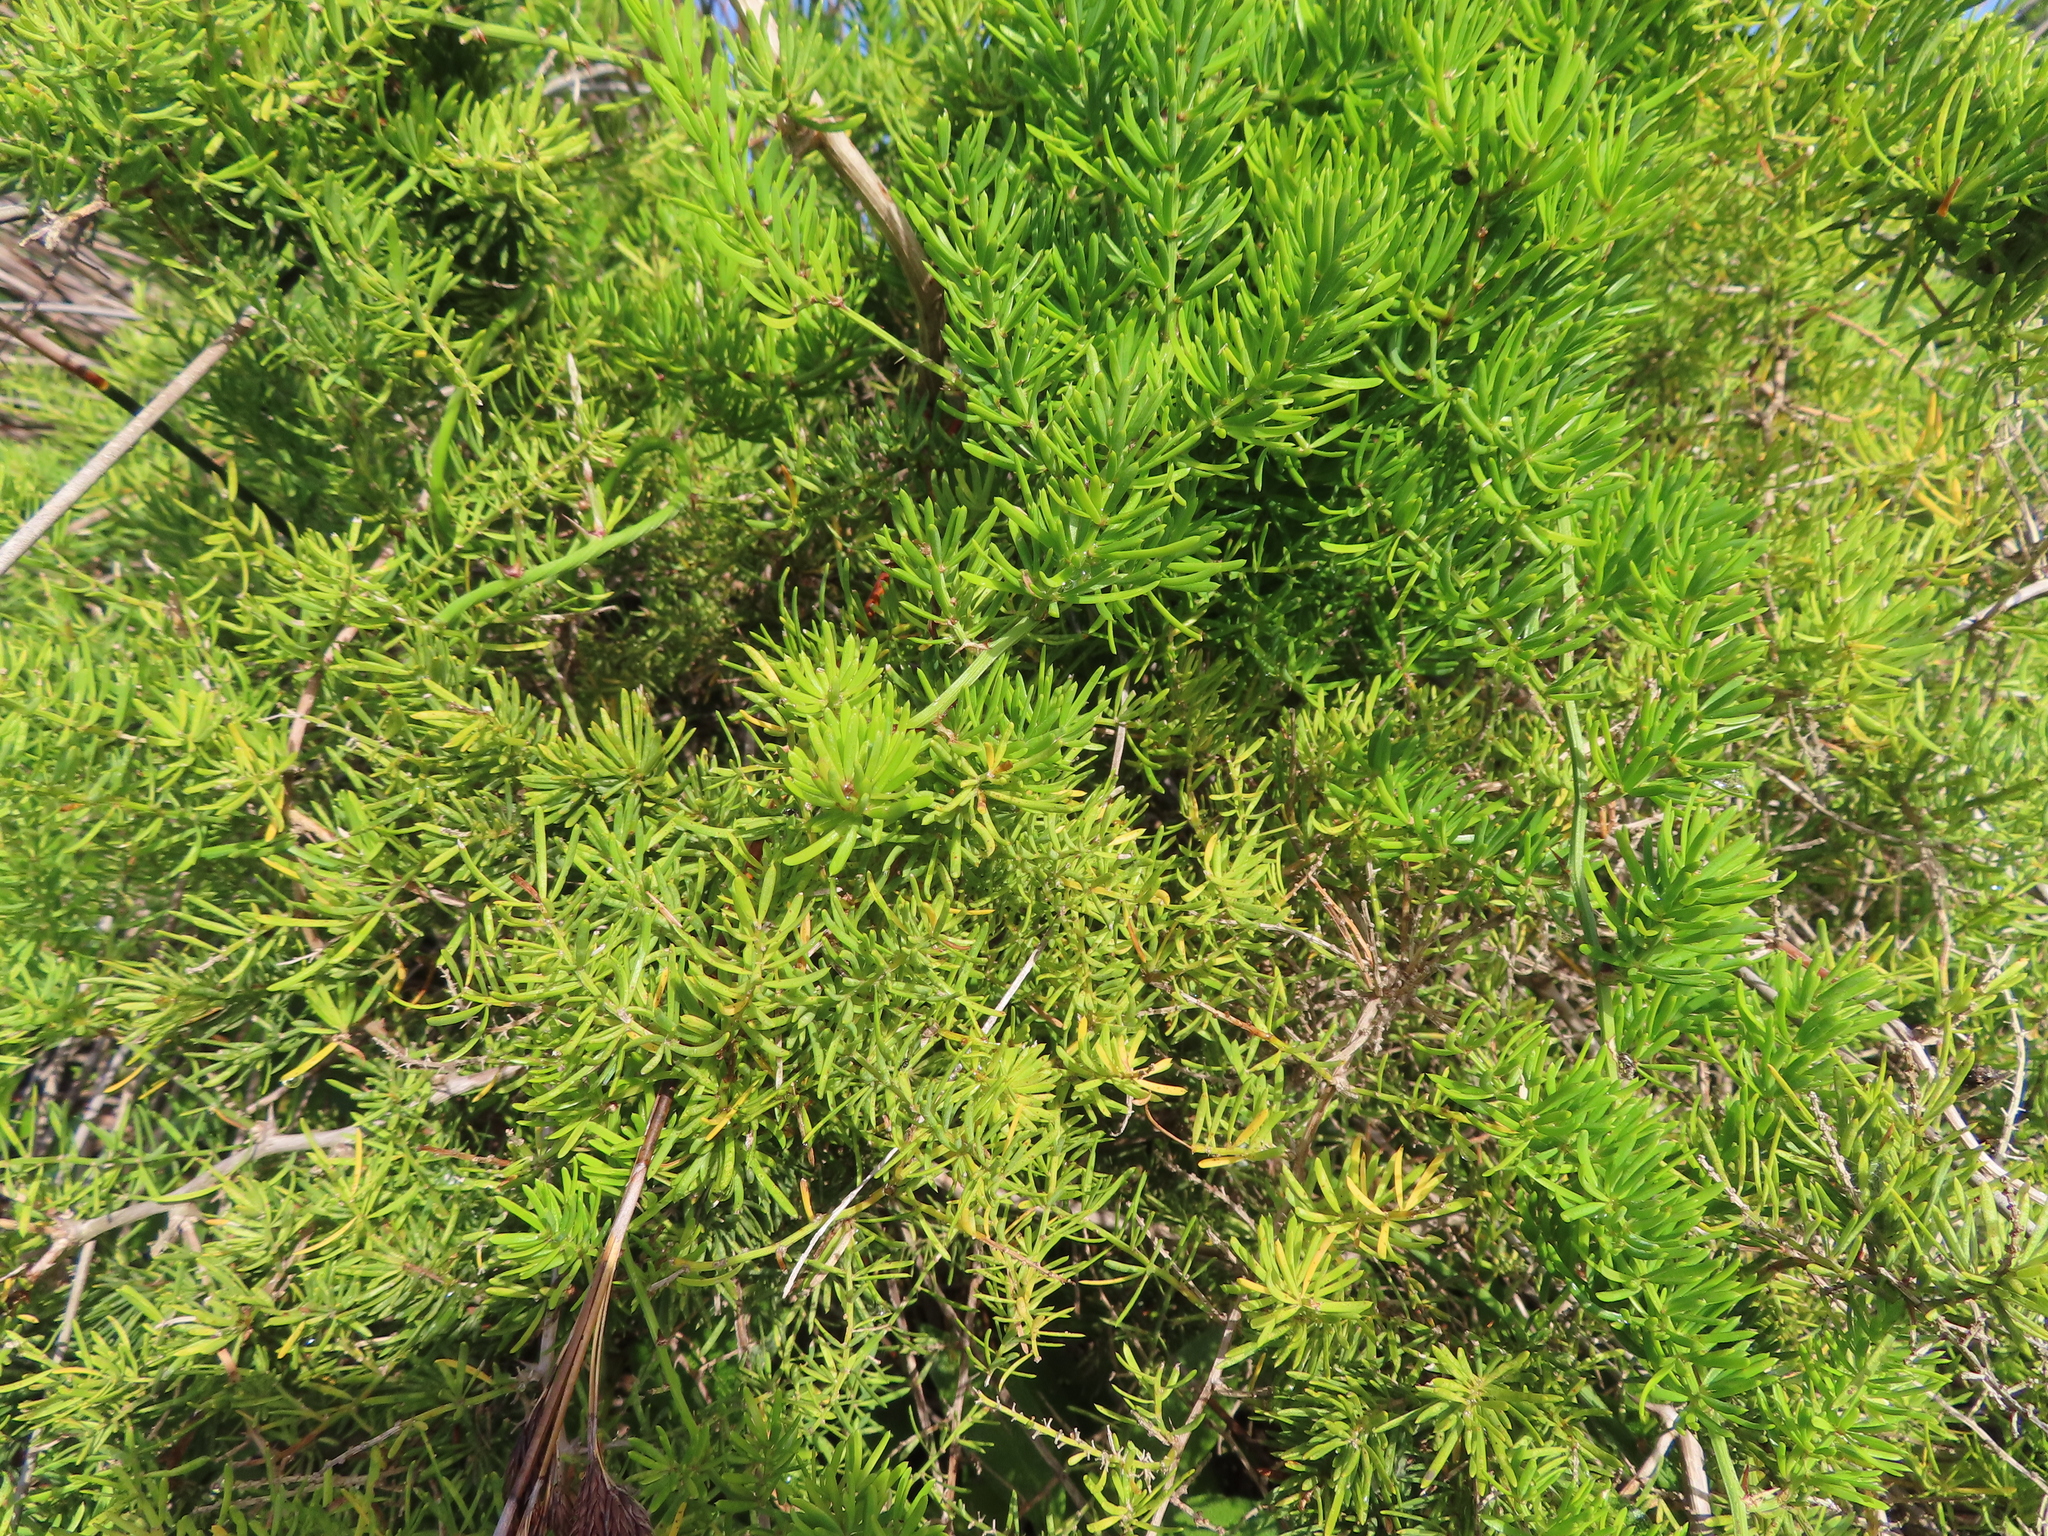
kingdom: Plantae
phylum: Tracheophyta
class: Liliopsida
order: Asparagales
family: Asparagaceae
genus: Asparagus
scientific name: Asparagus aethiopicus
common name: Sprenger's asparagus fern
